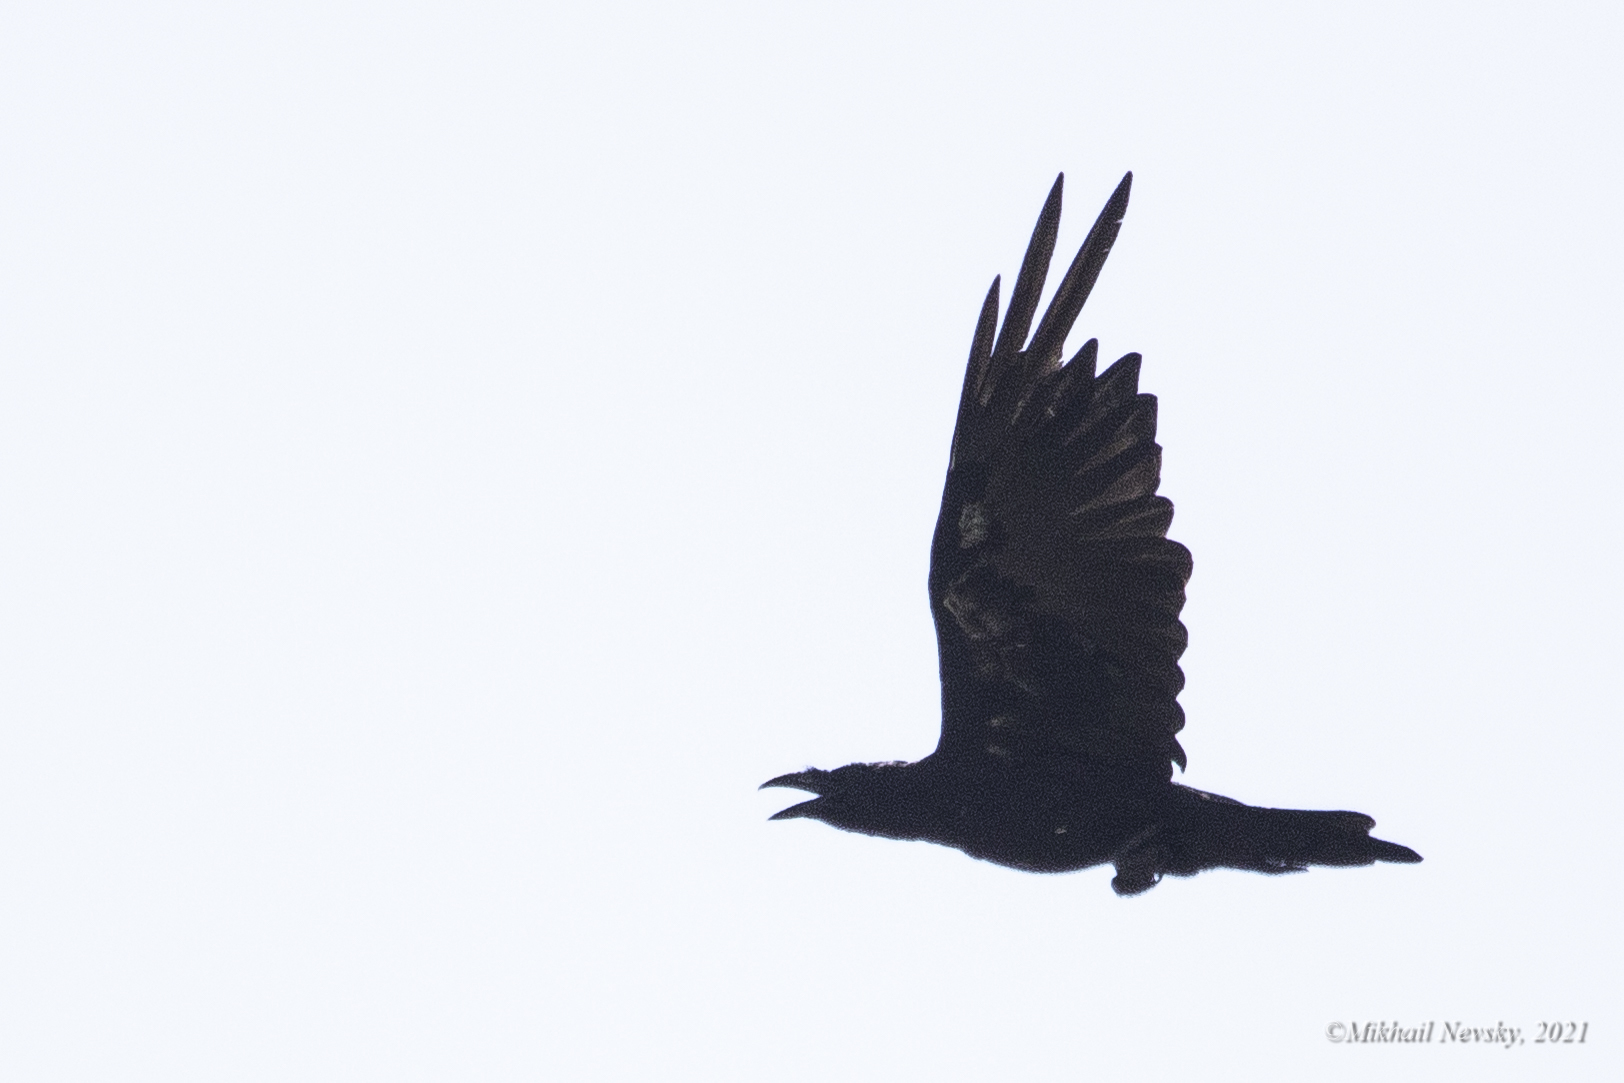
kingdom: Animalia
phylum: Chordata
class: Aves
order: Passeriformes
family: Corvidae
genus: Corvus
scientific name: Corvus corax
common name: Common raven
